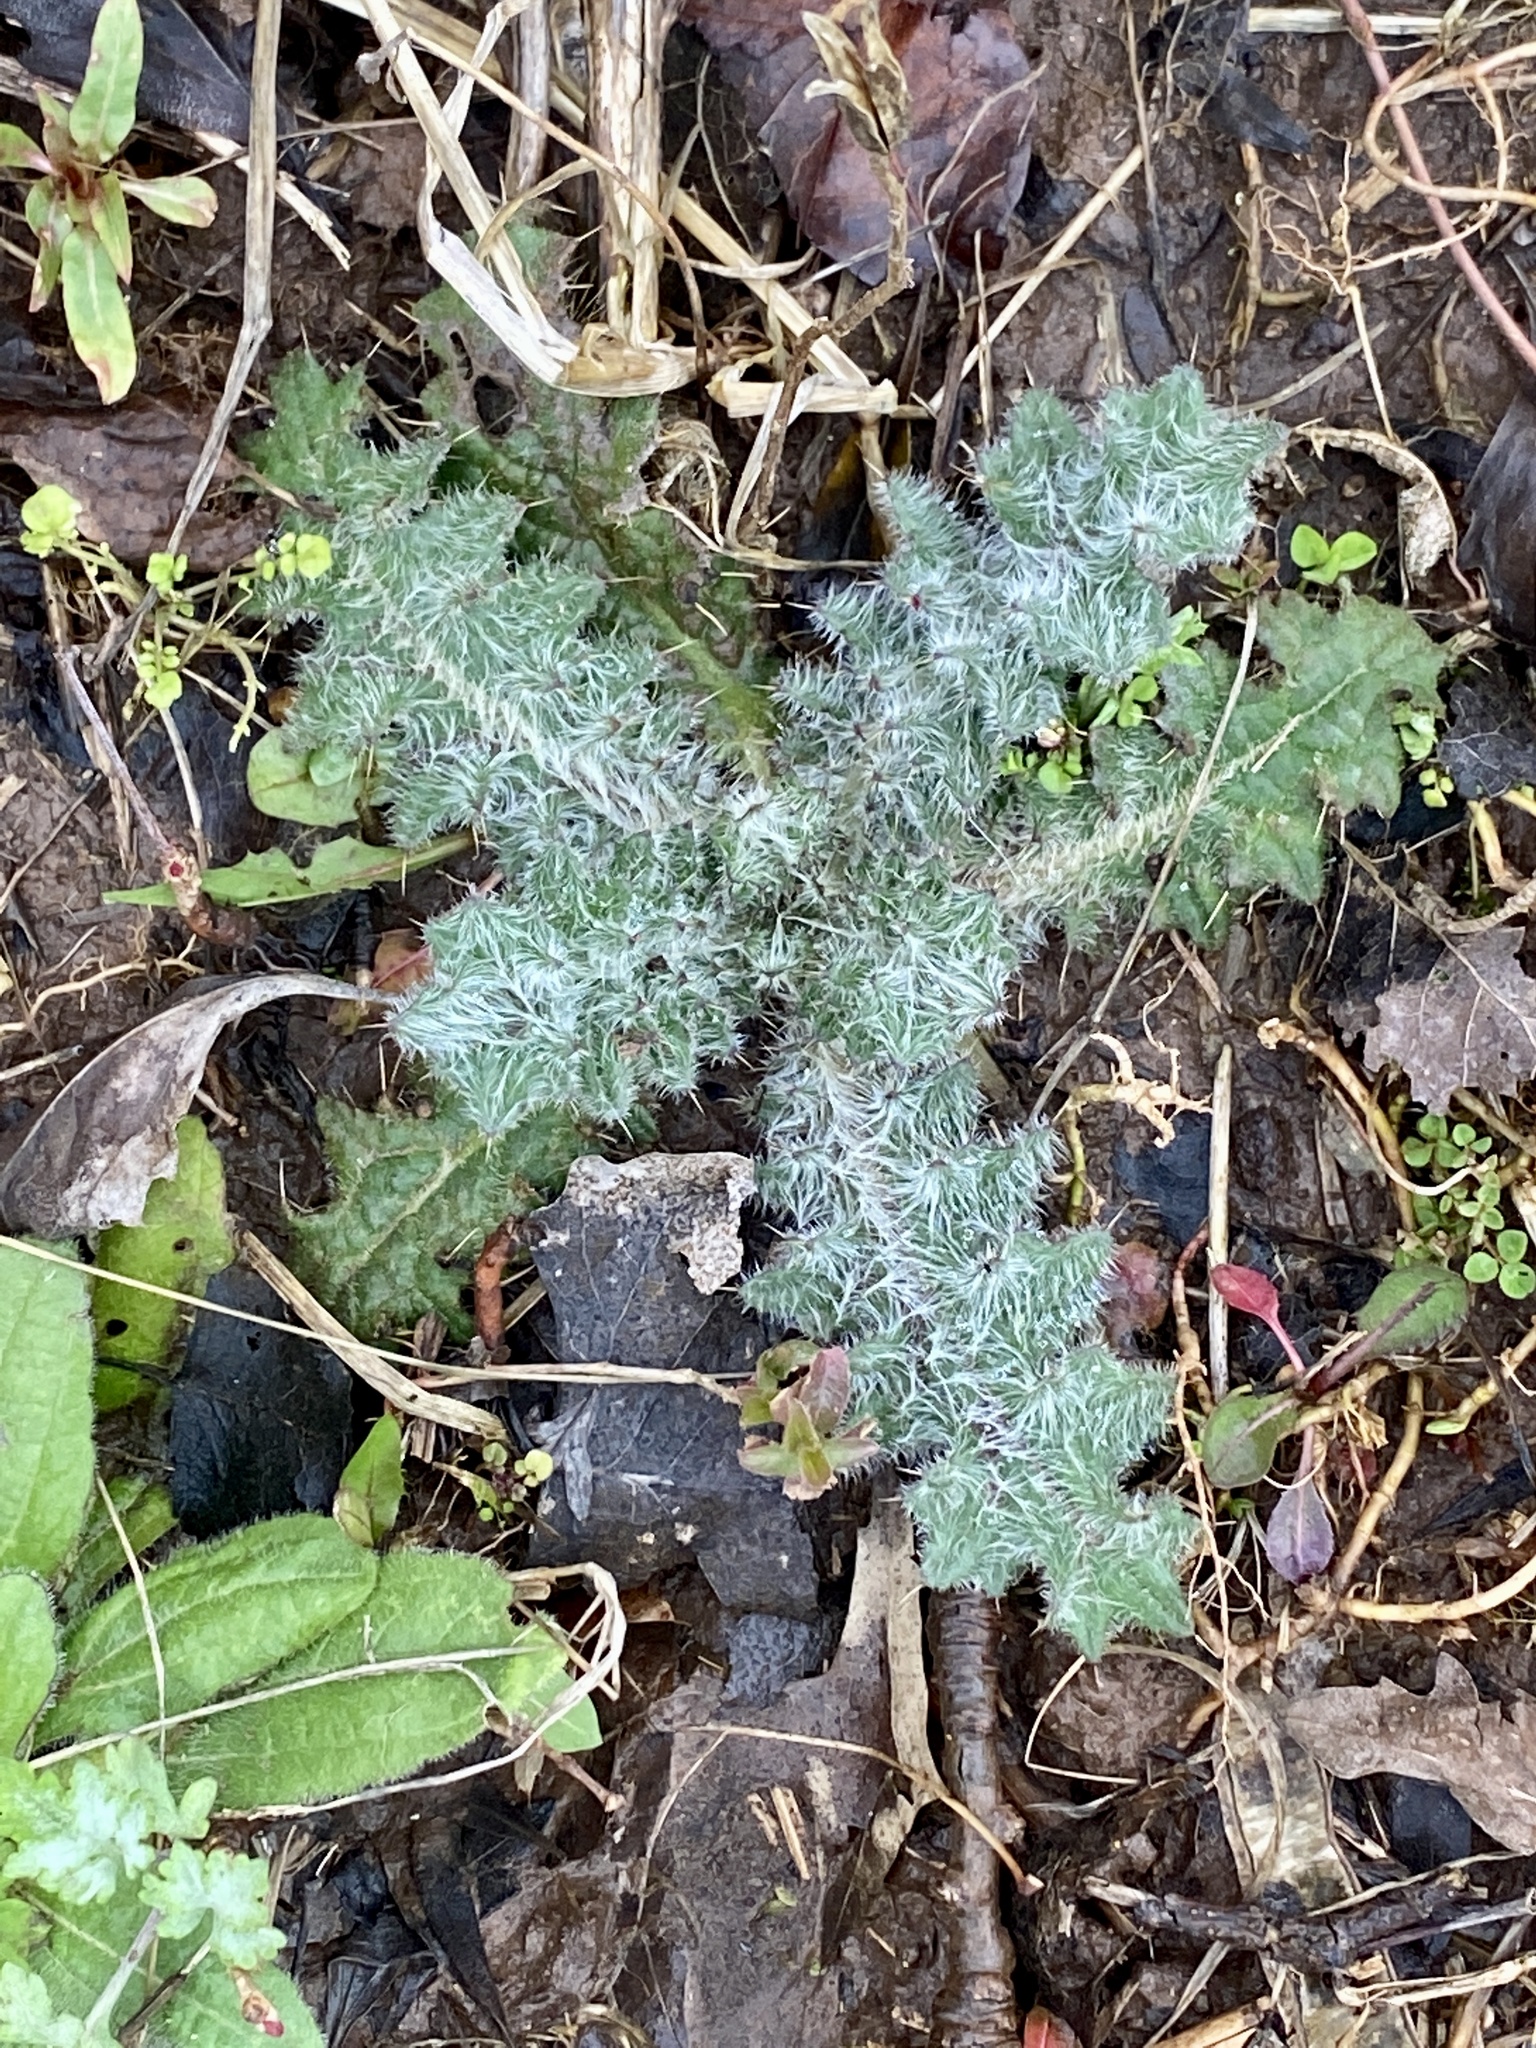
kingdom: Plantae
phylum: Tracheophyta
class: Magnoliopsida
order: Asterales
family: Asteraceae
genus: Cirsium
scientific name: Cirsium vulgare
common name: Bull thistle
